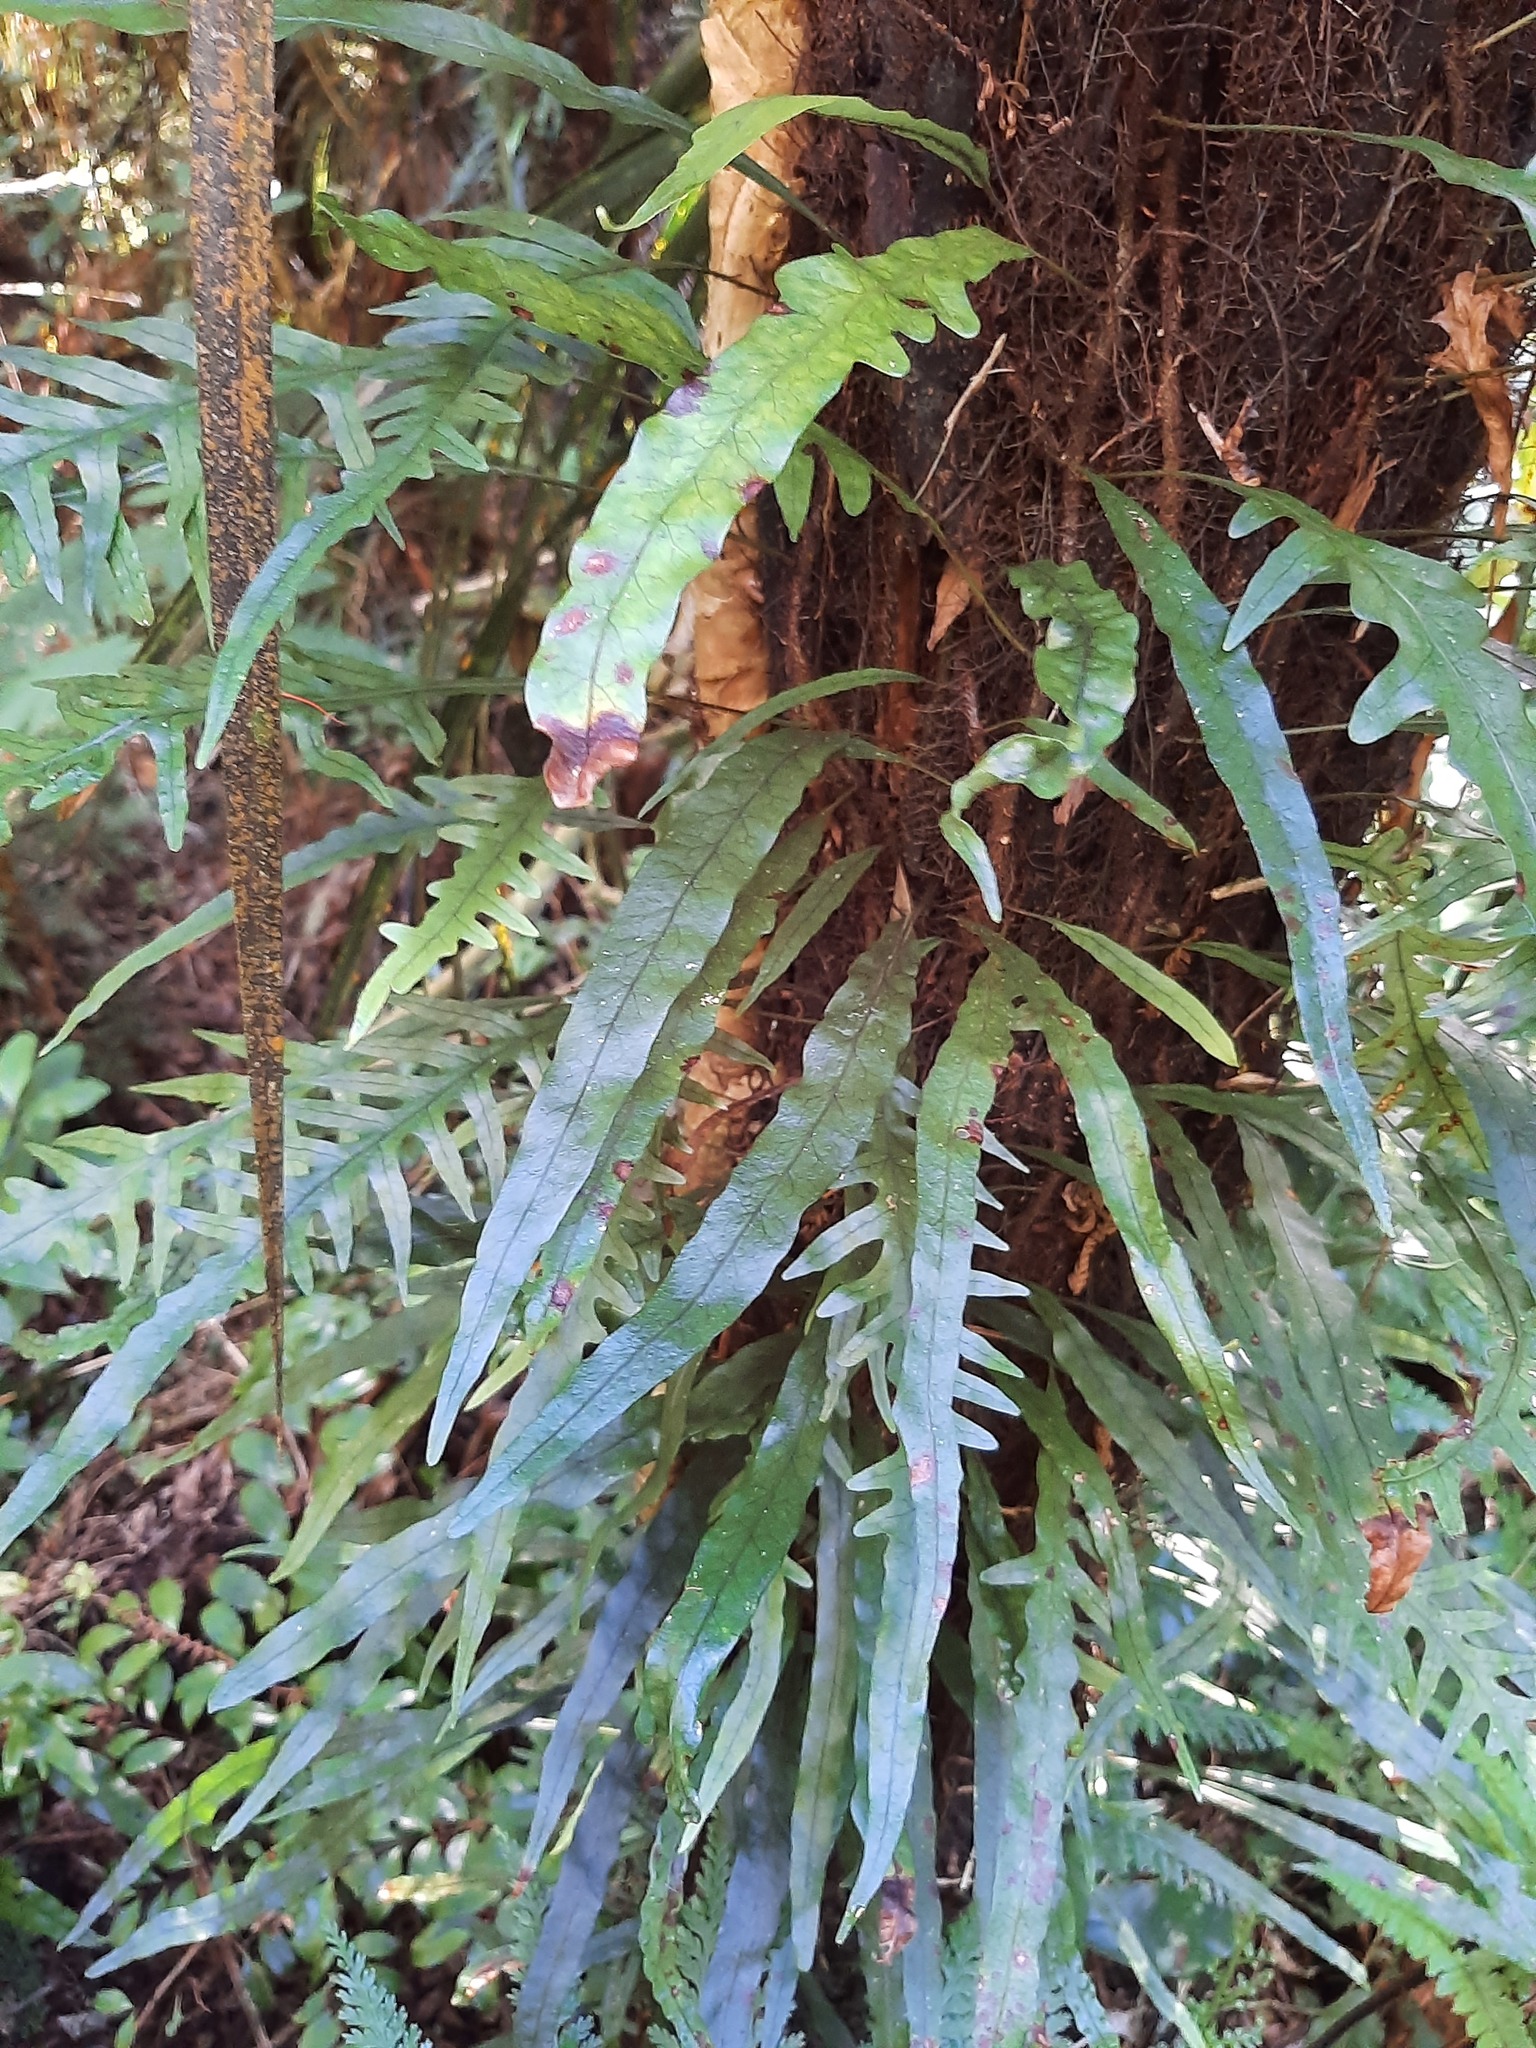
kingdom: Plantae
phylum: Tracheophyta
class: Polypodiopsida
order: Polypodiales
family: Polypodiaceae
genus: Lecanopteris
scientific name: Lecanopteris scandens
